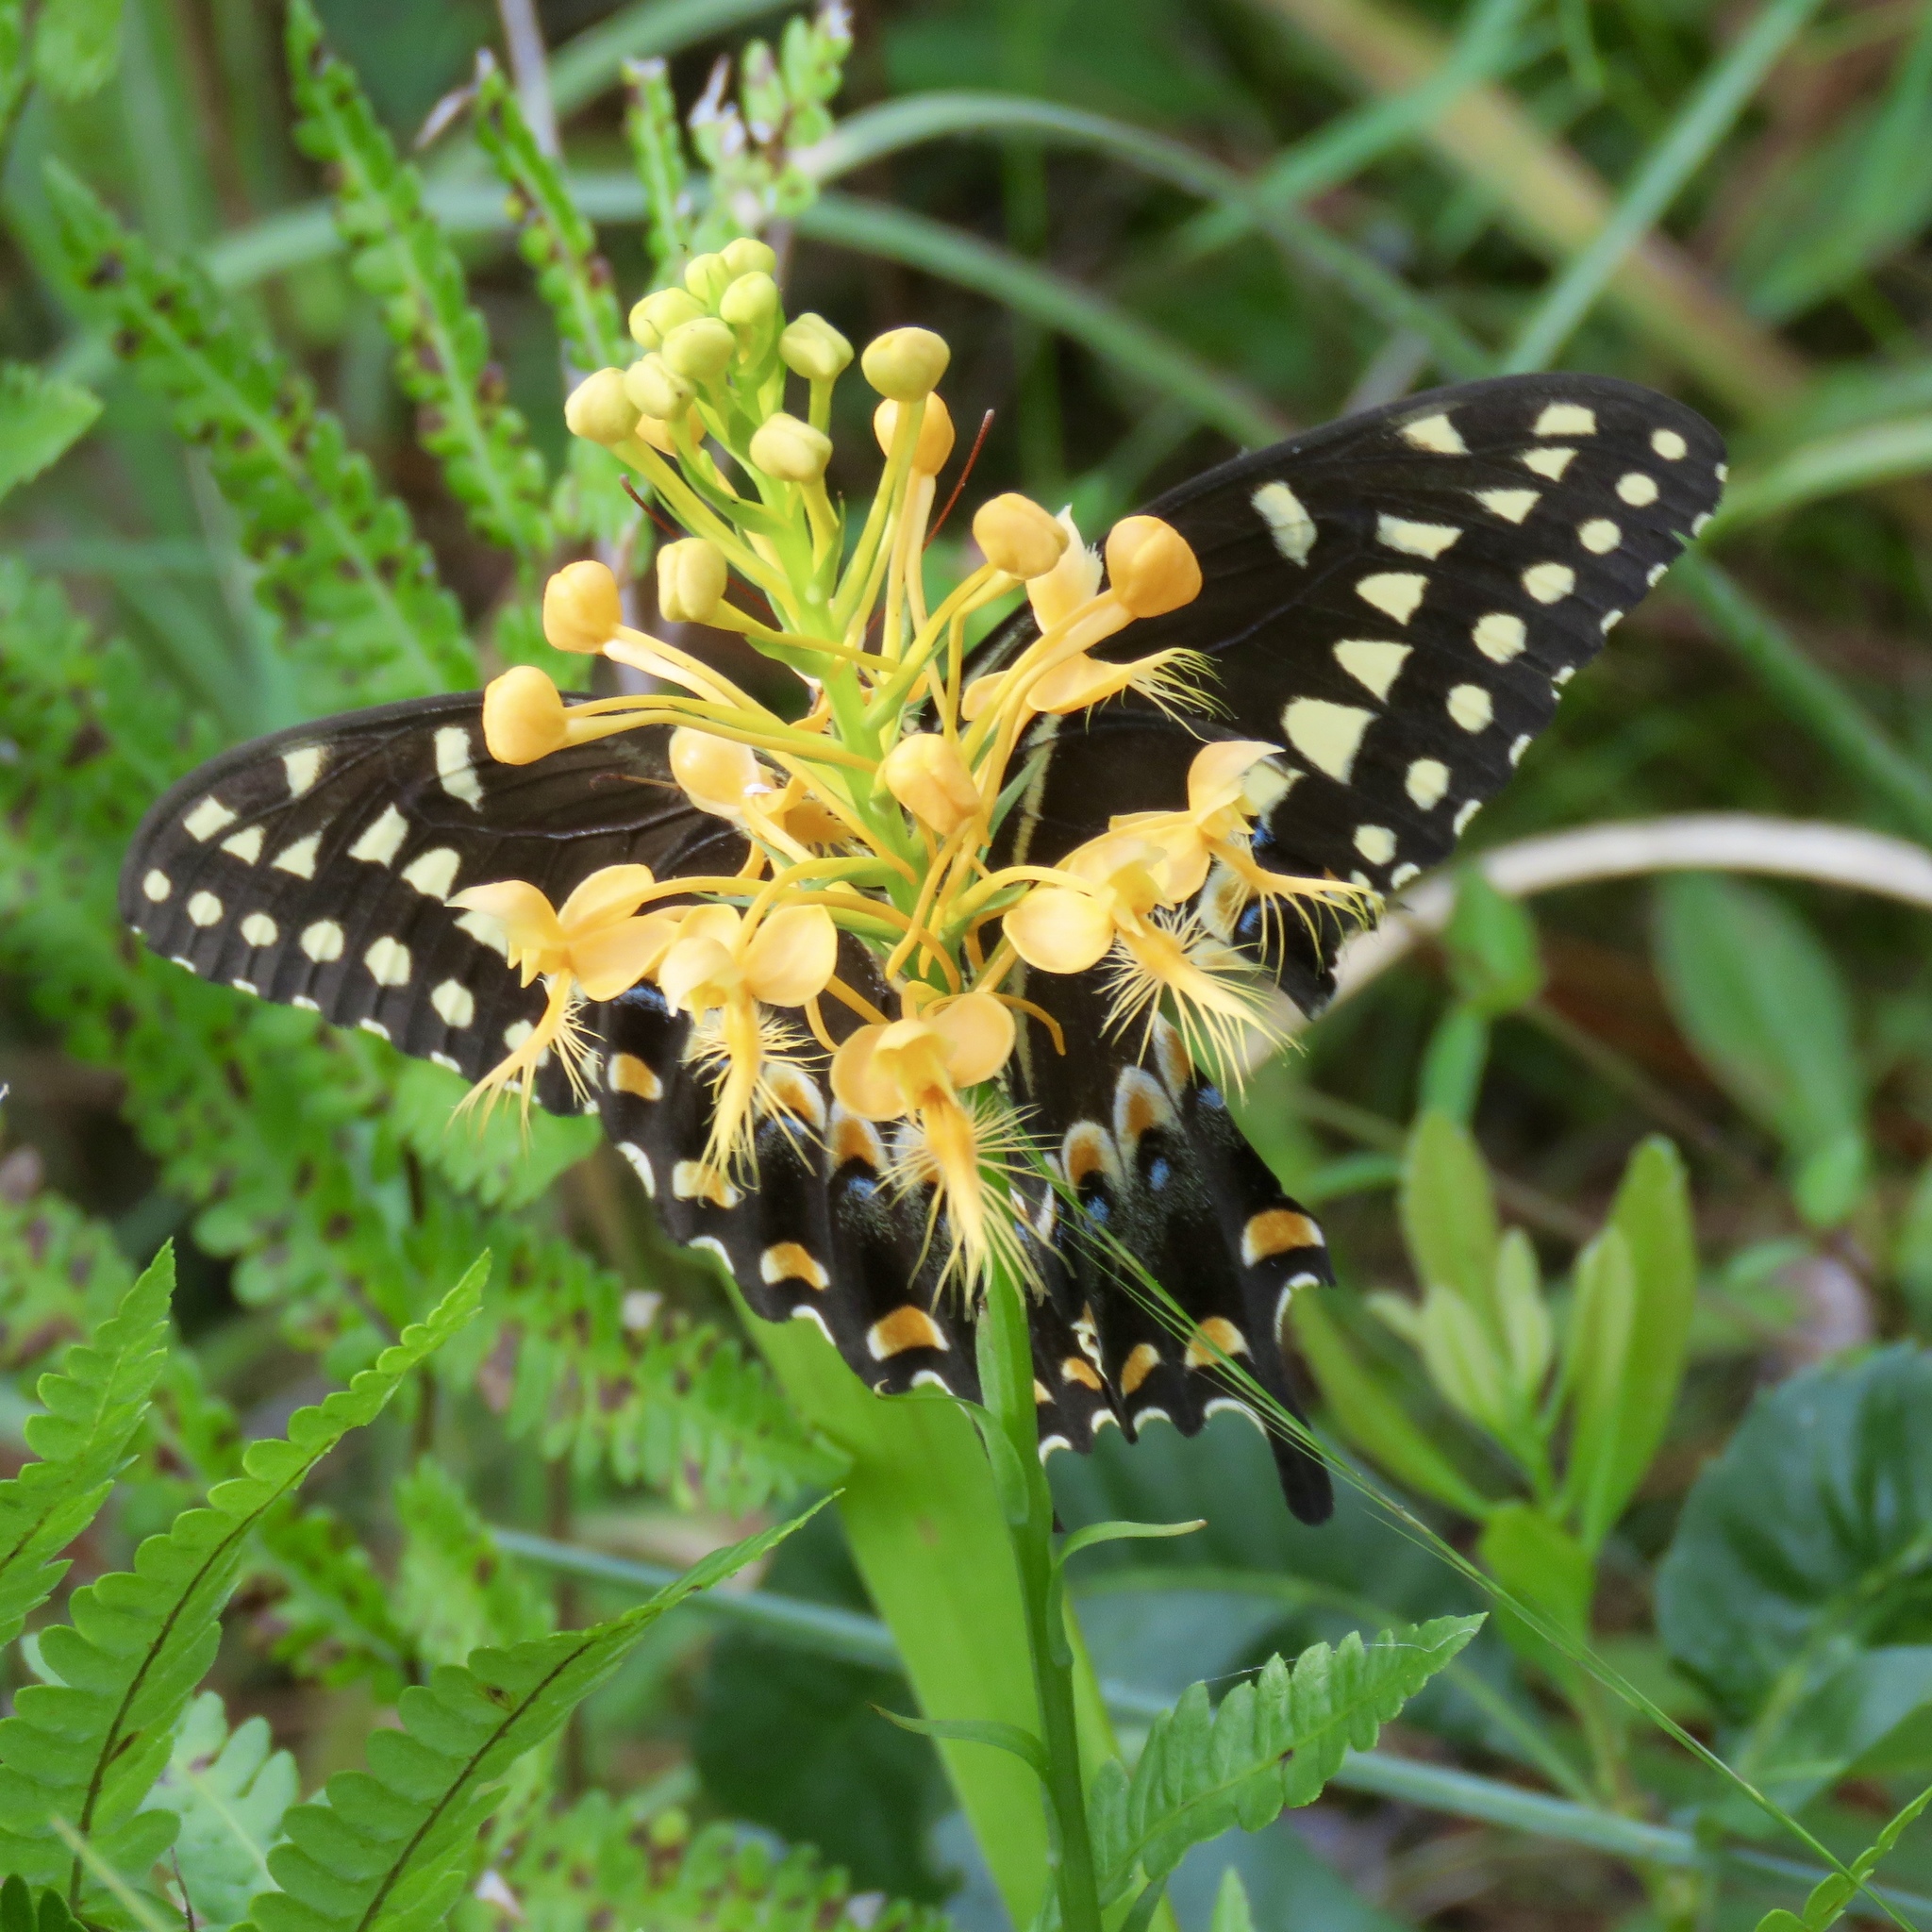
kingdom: Animalia
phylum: Arthropoda
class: Insecta
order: Lepidoptera
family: Papilionidae
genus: Papilio
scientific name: Papilio palamedes
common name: Palamedes swallowtail
